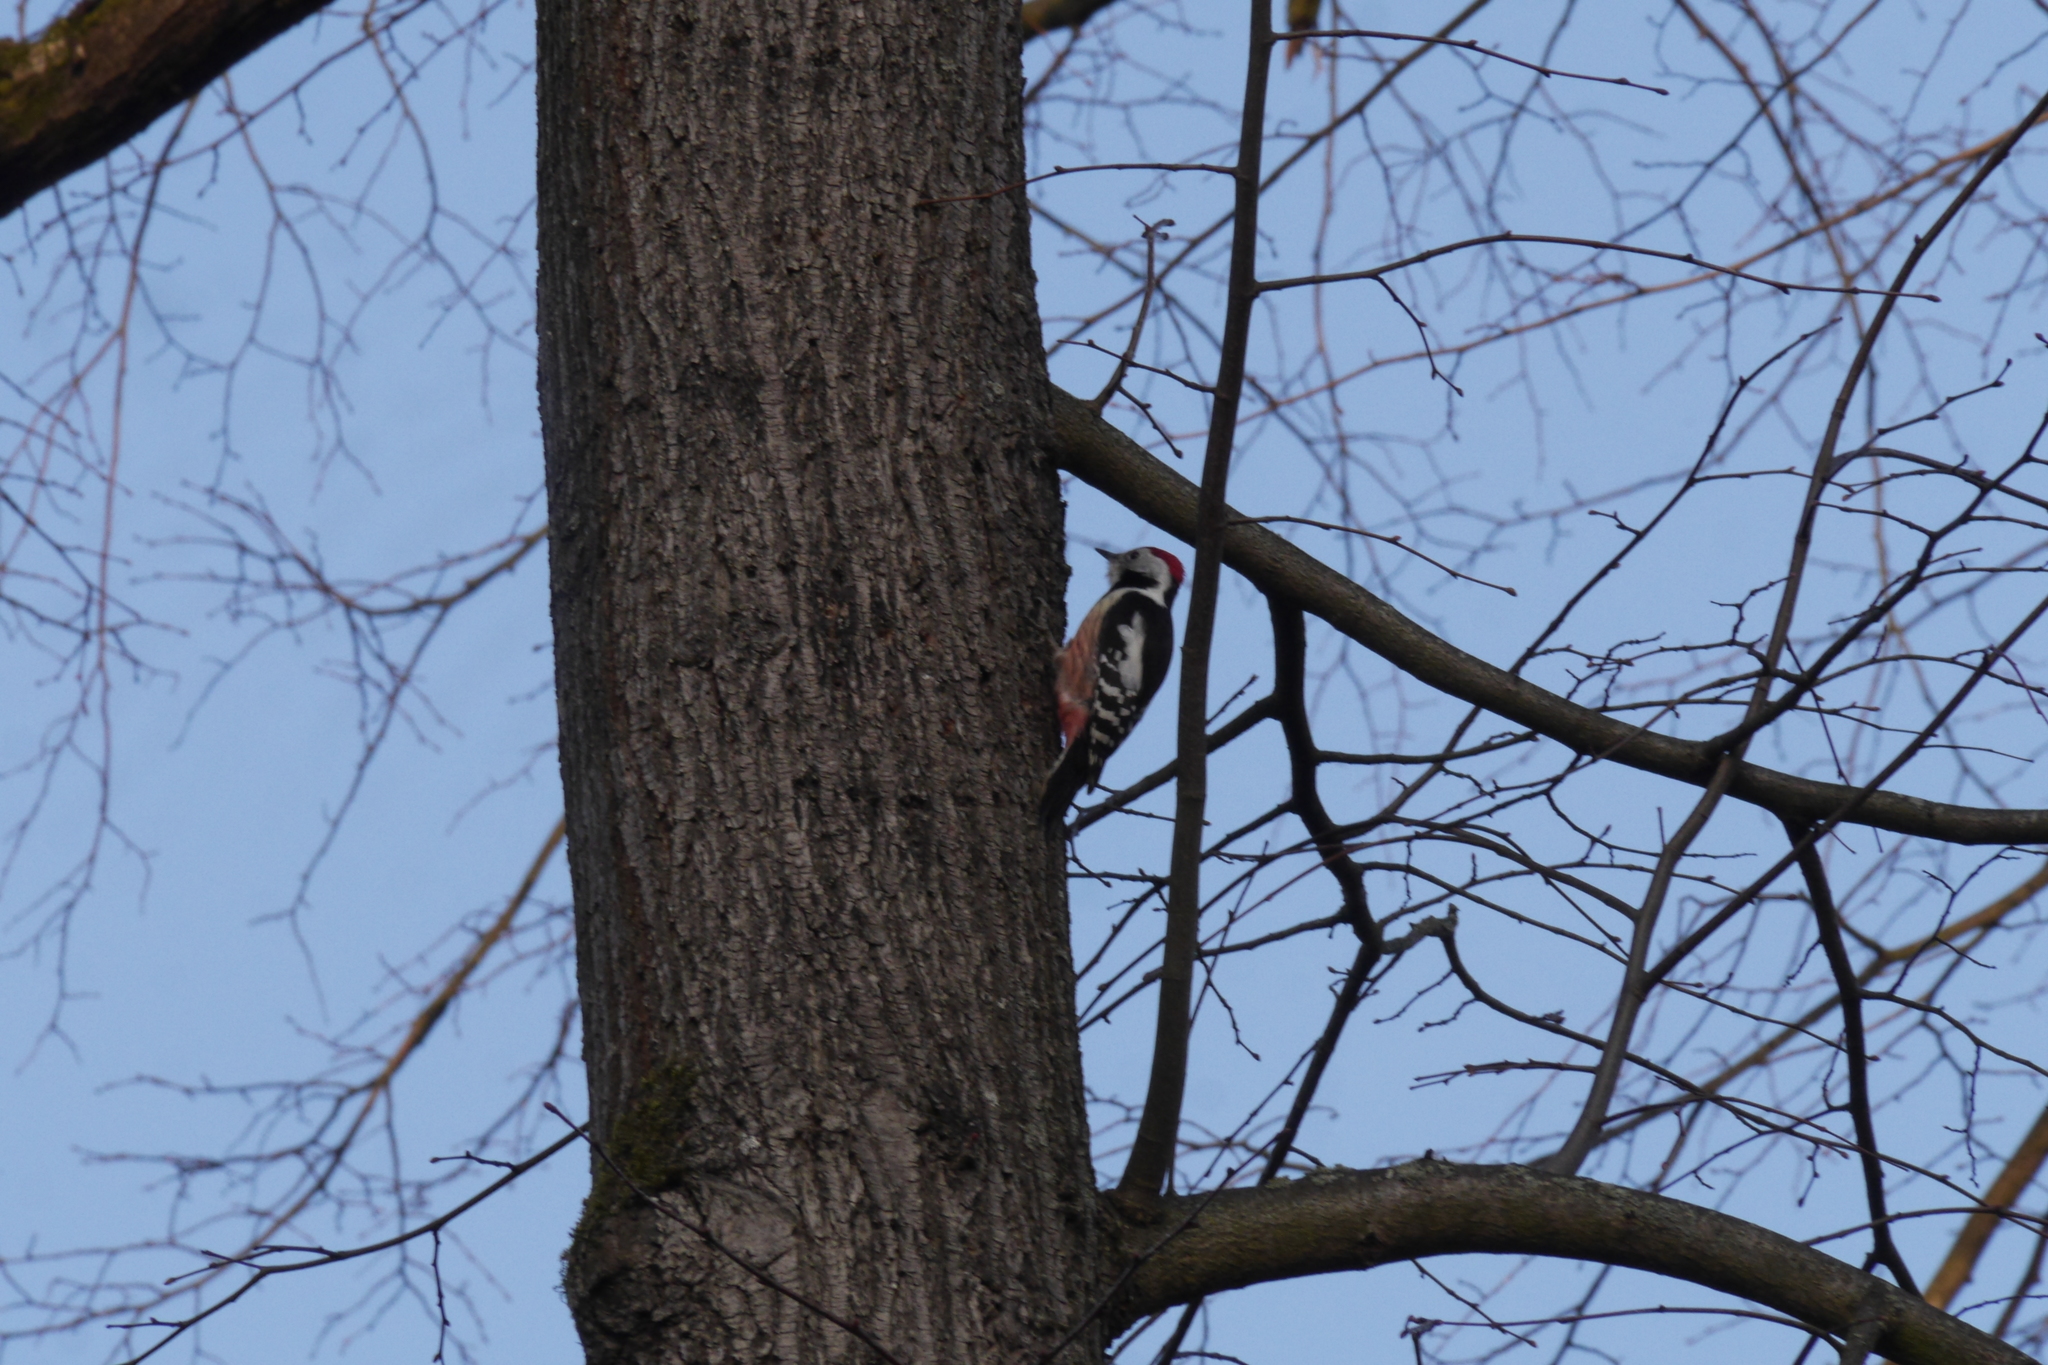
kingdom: Animalia
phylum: Chordata
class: Aves
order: Piciformes
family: Picidae
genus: Dendrocoptes
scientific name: Dendrocoptes medius
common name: Middle spotted woodpecker
